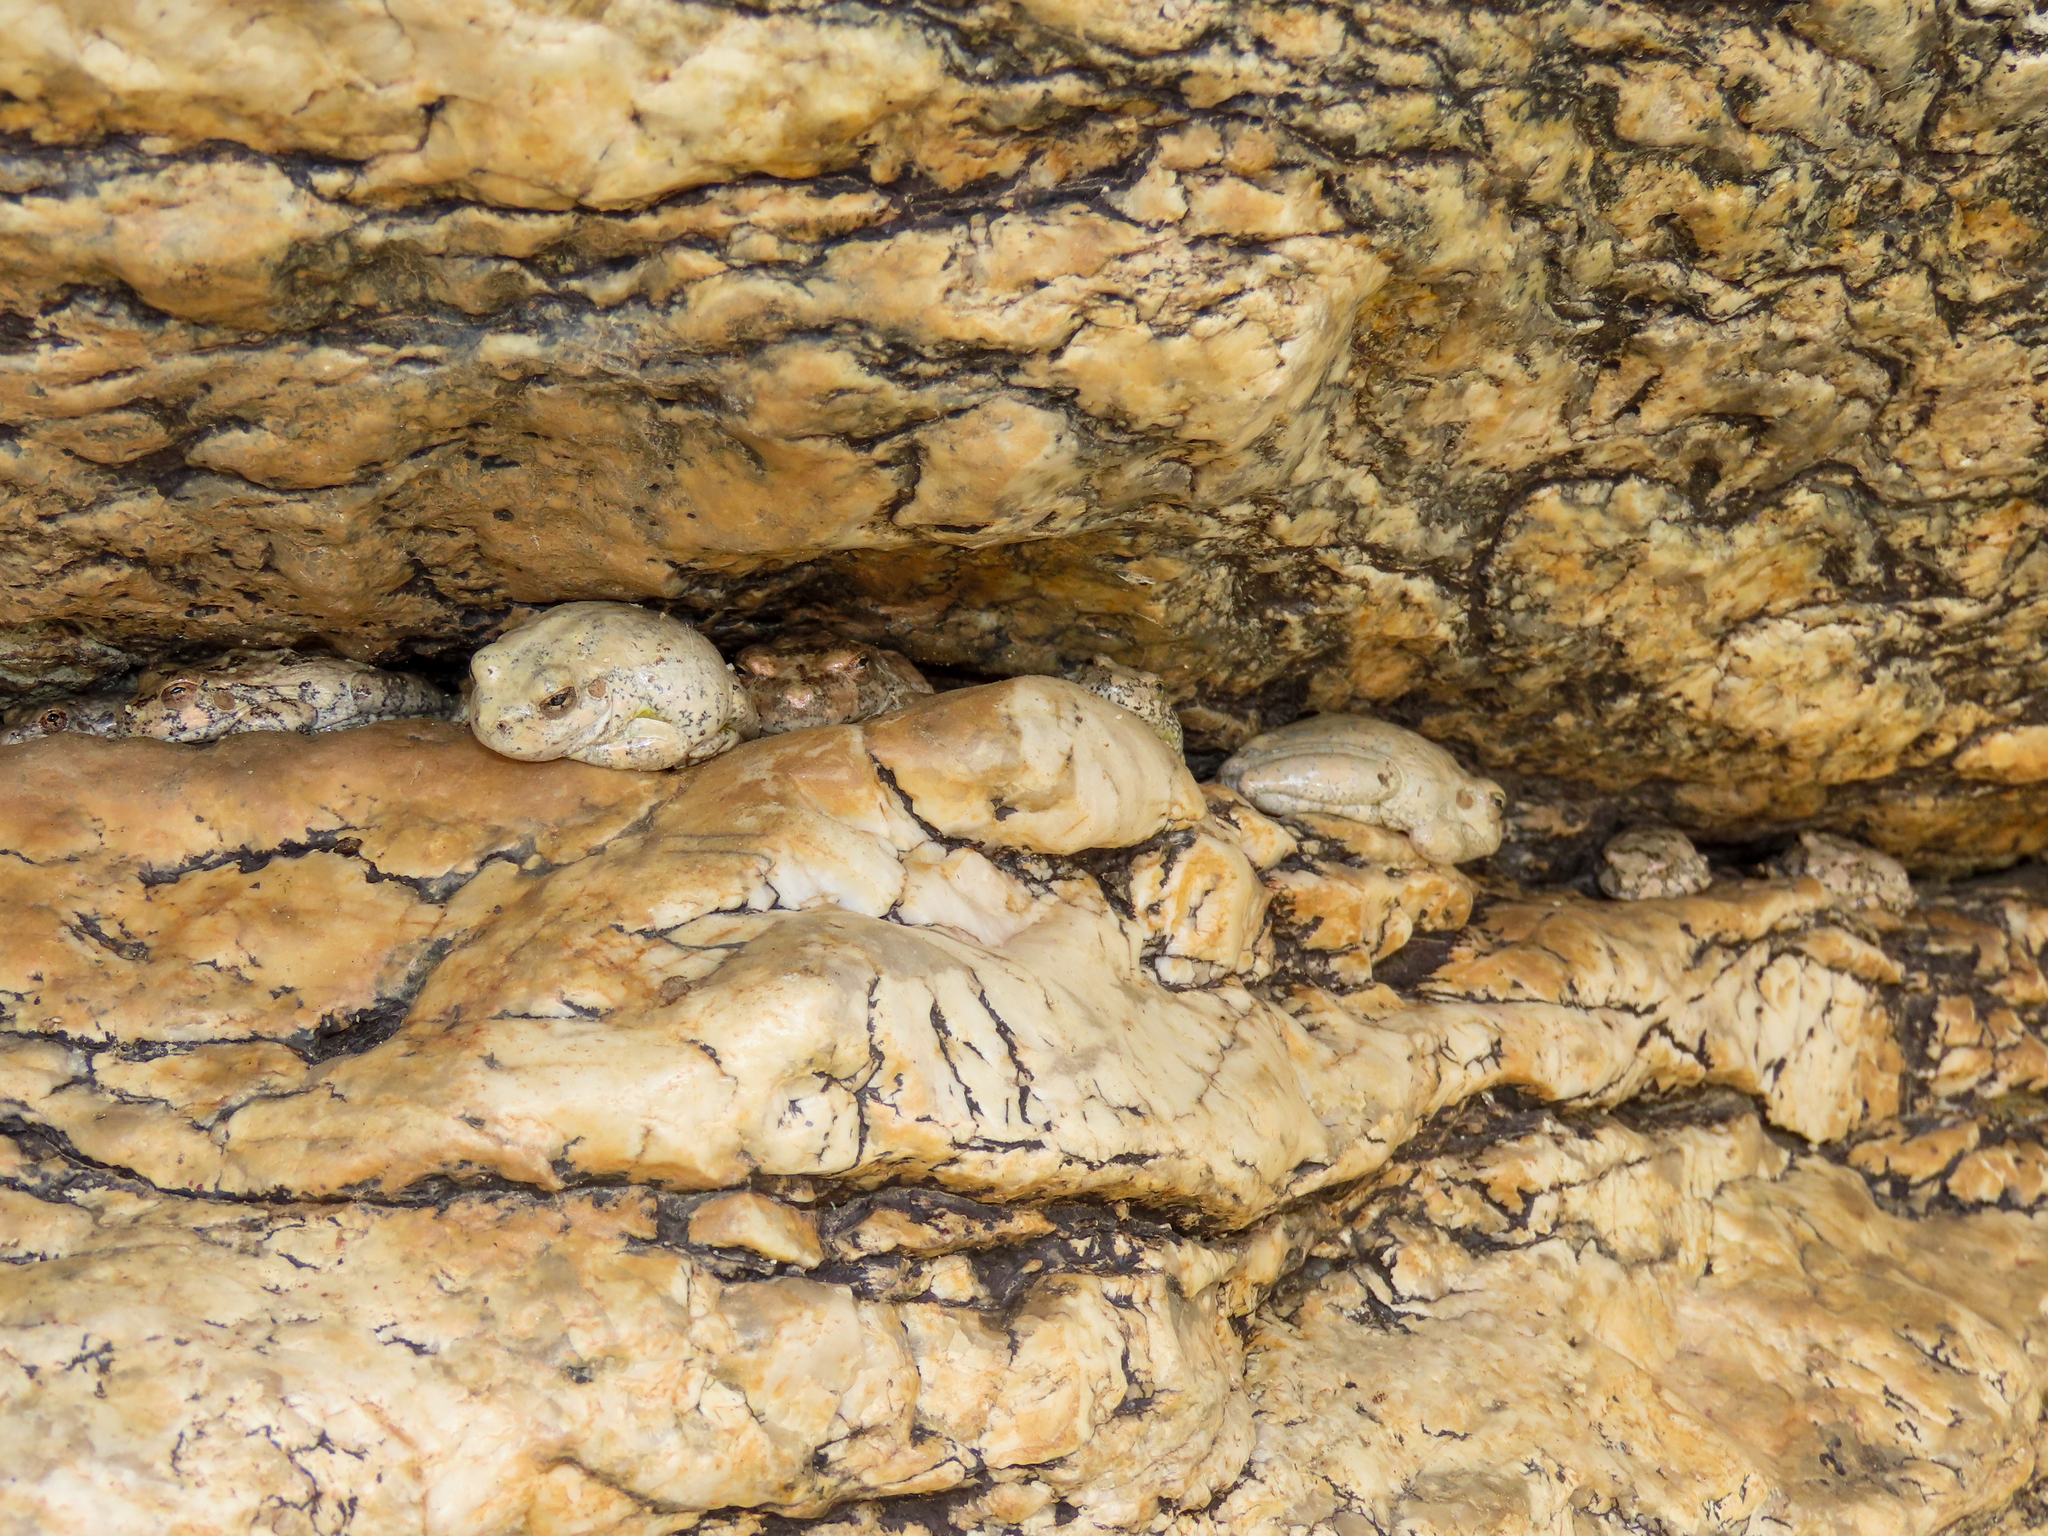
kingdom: Animalia
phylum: Chordata
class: Amphibia
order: Anura
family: Hylidae
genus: Dryophytes
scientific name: Dryophytes arenicolor
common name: Canyon treefrog
